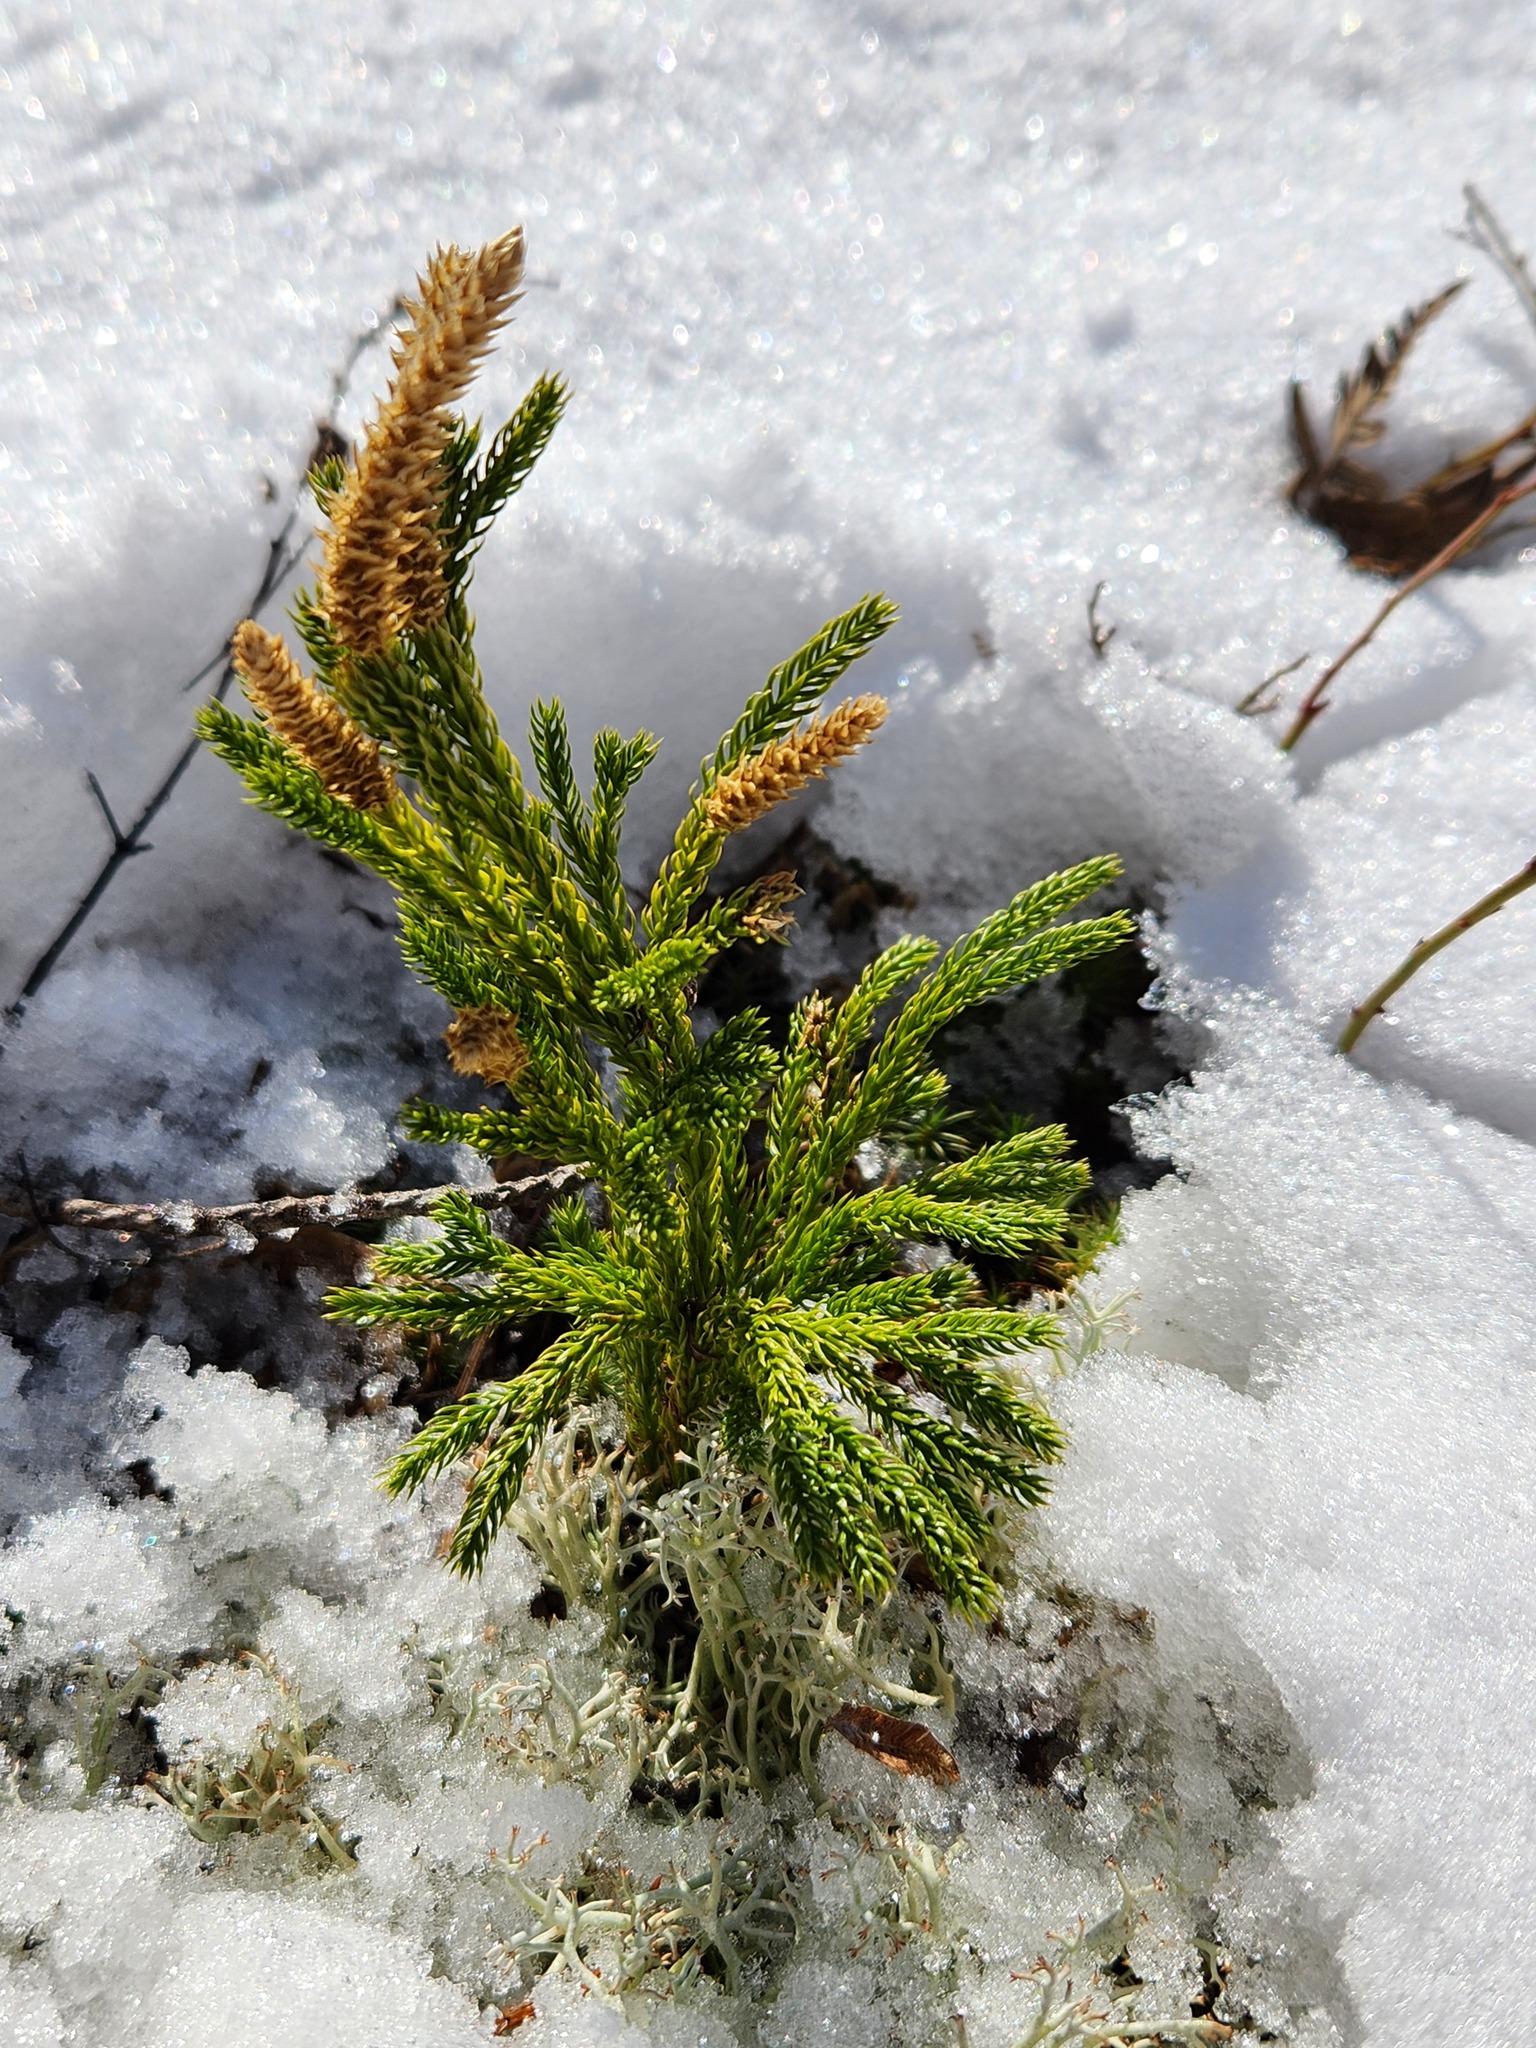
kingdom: Plantae
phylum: Tracheophyta
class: Lycopodiopsida
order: Lycopodiales
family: Lycopodiaceae
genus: Dendrolycopodium
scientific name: Dendrolycopodium hickeyi
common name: Hickey's clubmoss
